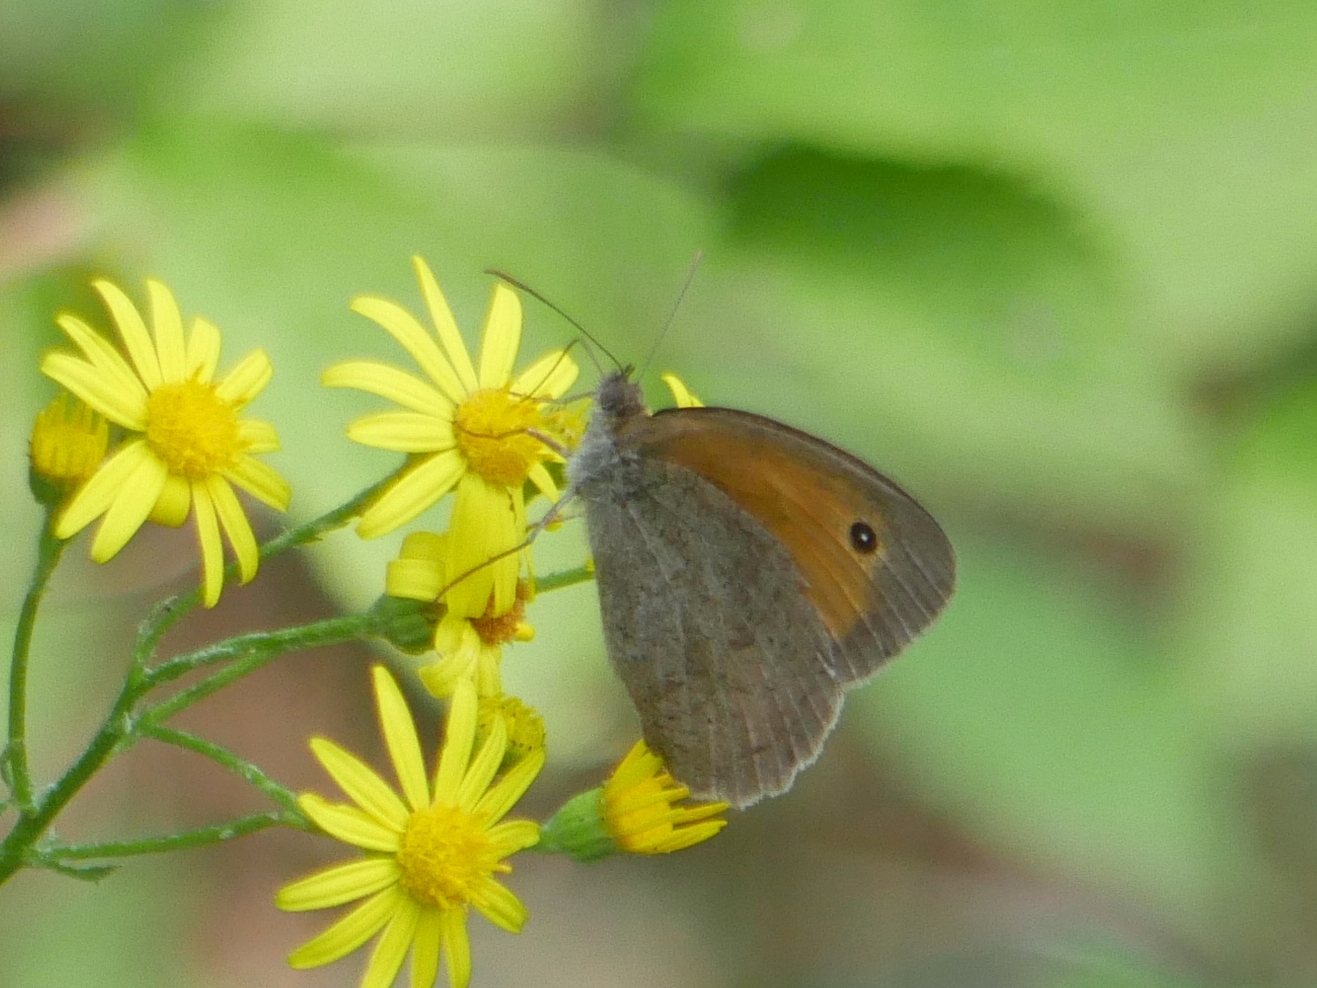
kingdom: Animalia
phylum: Arthropoda
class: Insecta
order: Lepidoptera
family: Nymphalidae
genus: Maniola
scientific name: Maniola jurtina
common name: Meadow brown
